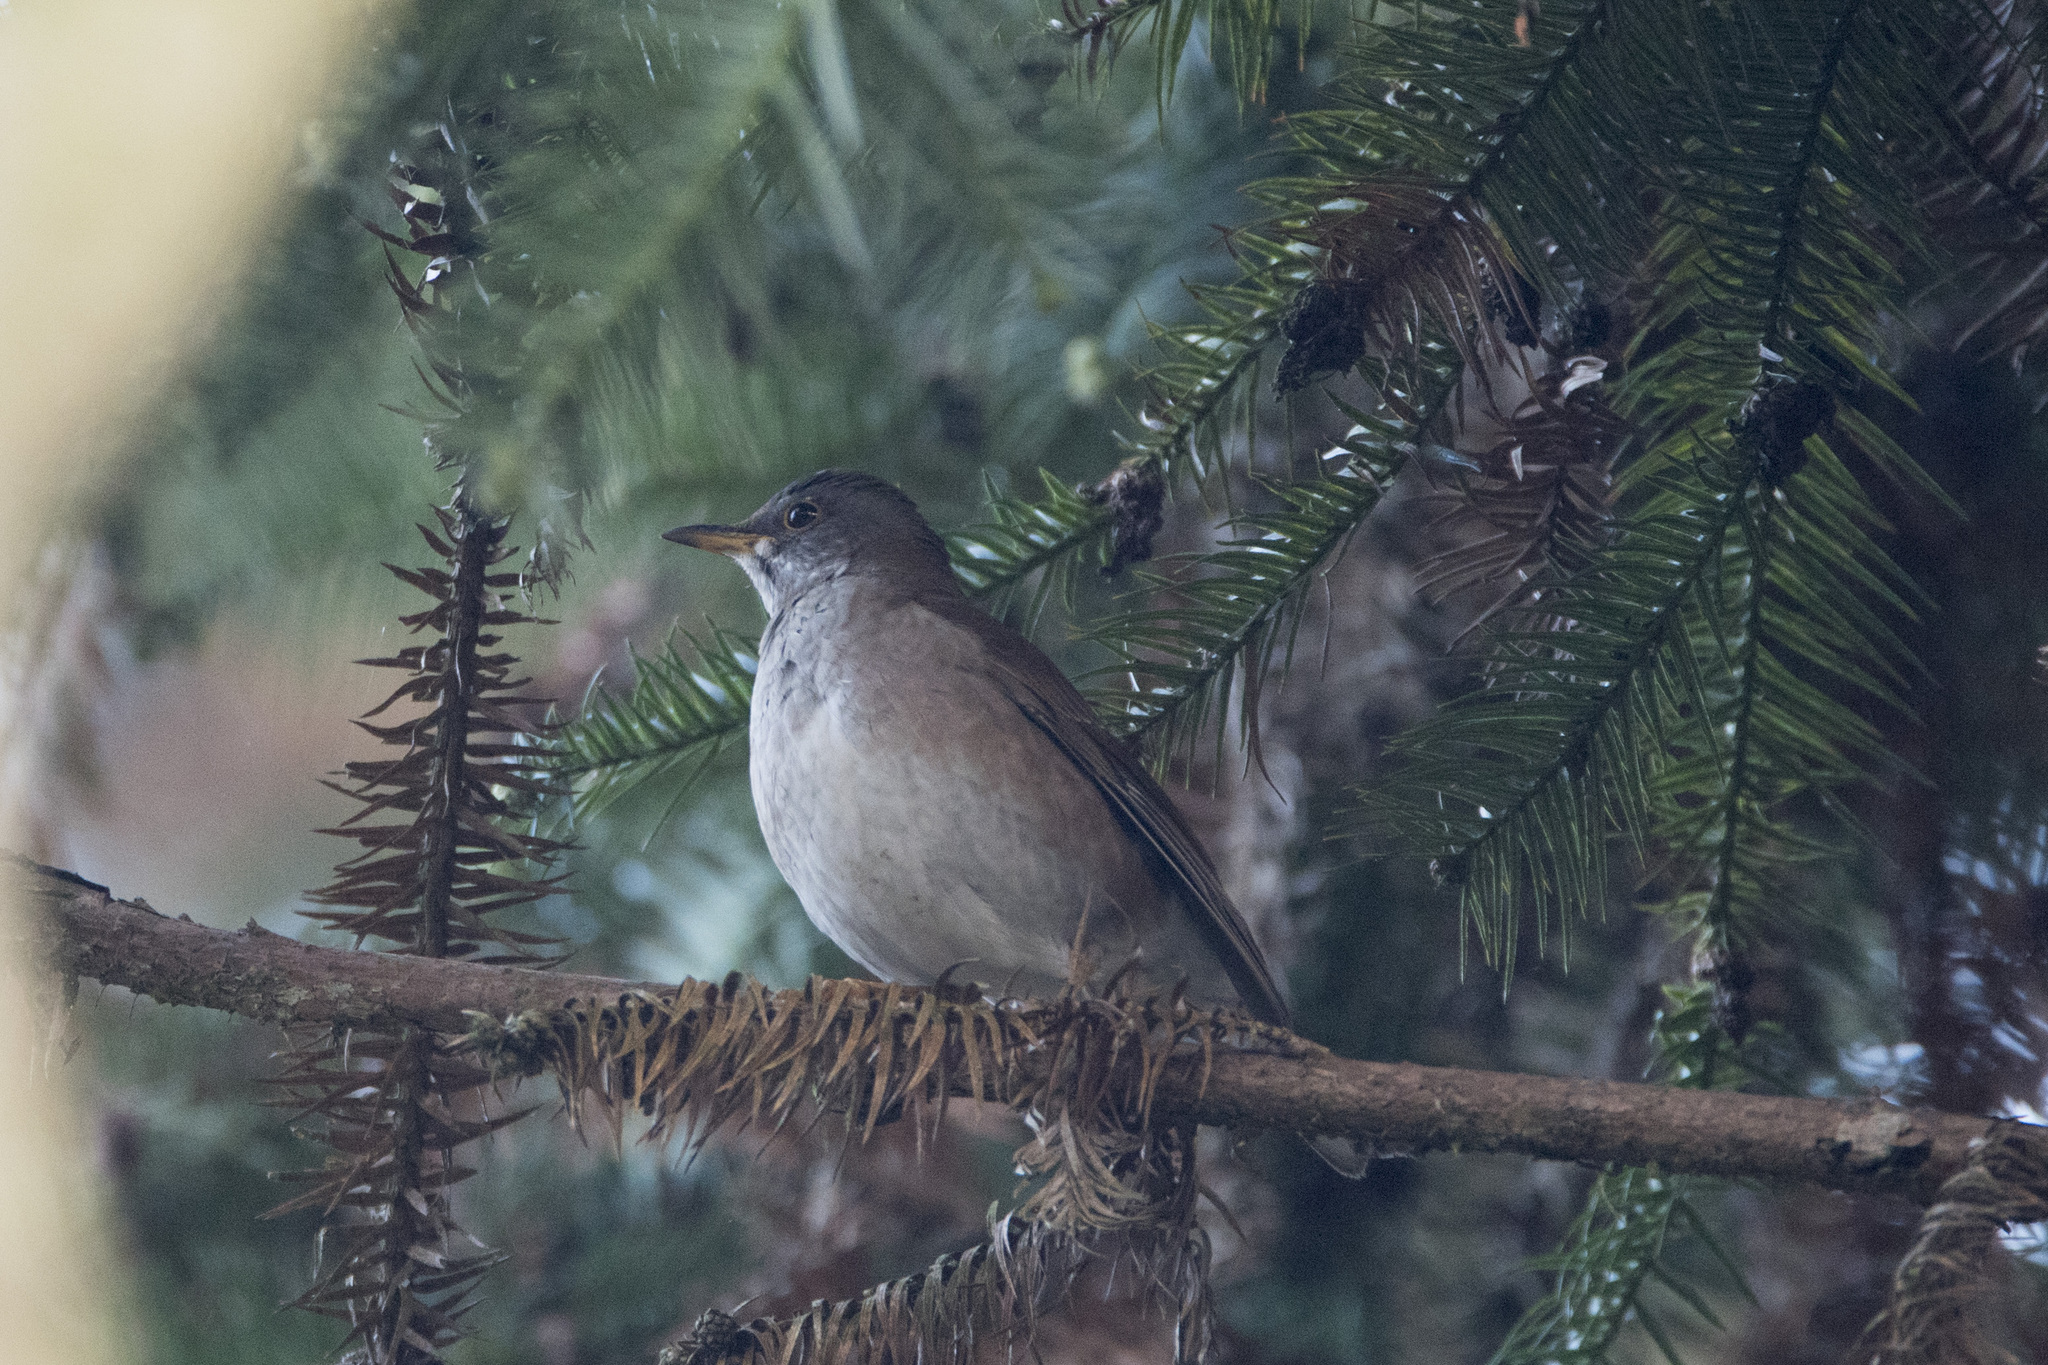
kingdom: Animalia
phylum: Chordata
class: Aves
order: Passeriformes
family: Turdidae
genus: Turdus
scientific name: Turdus pallidus
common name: Pale thrush
